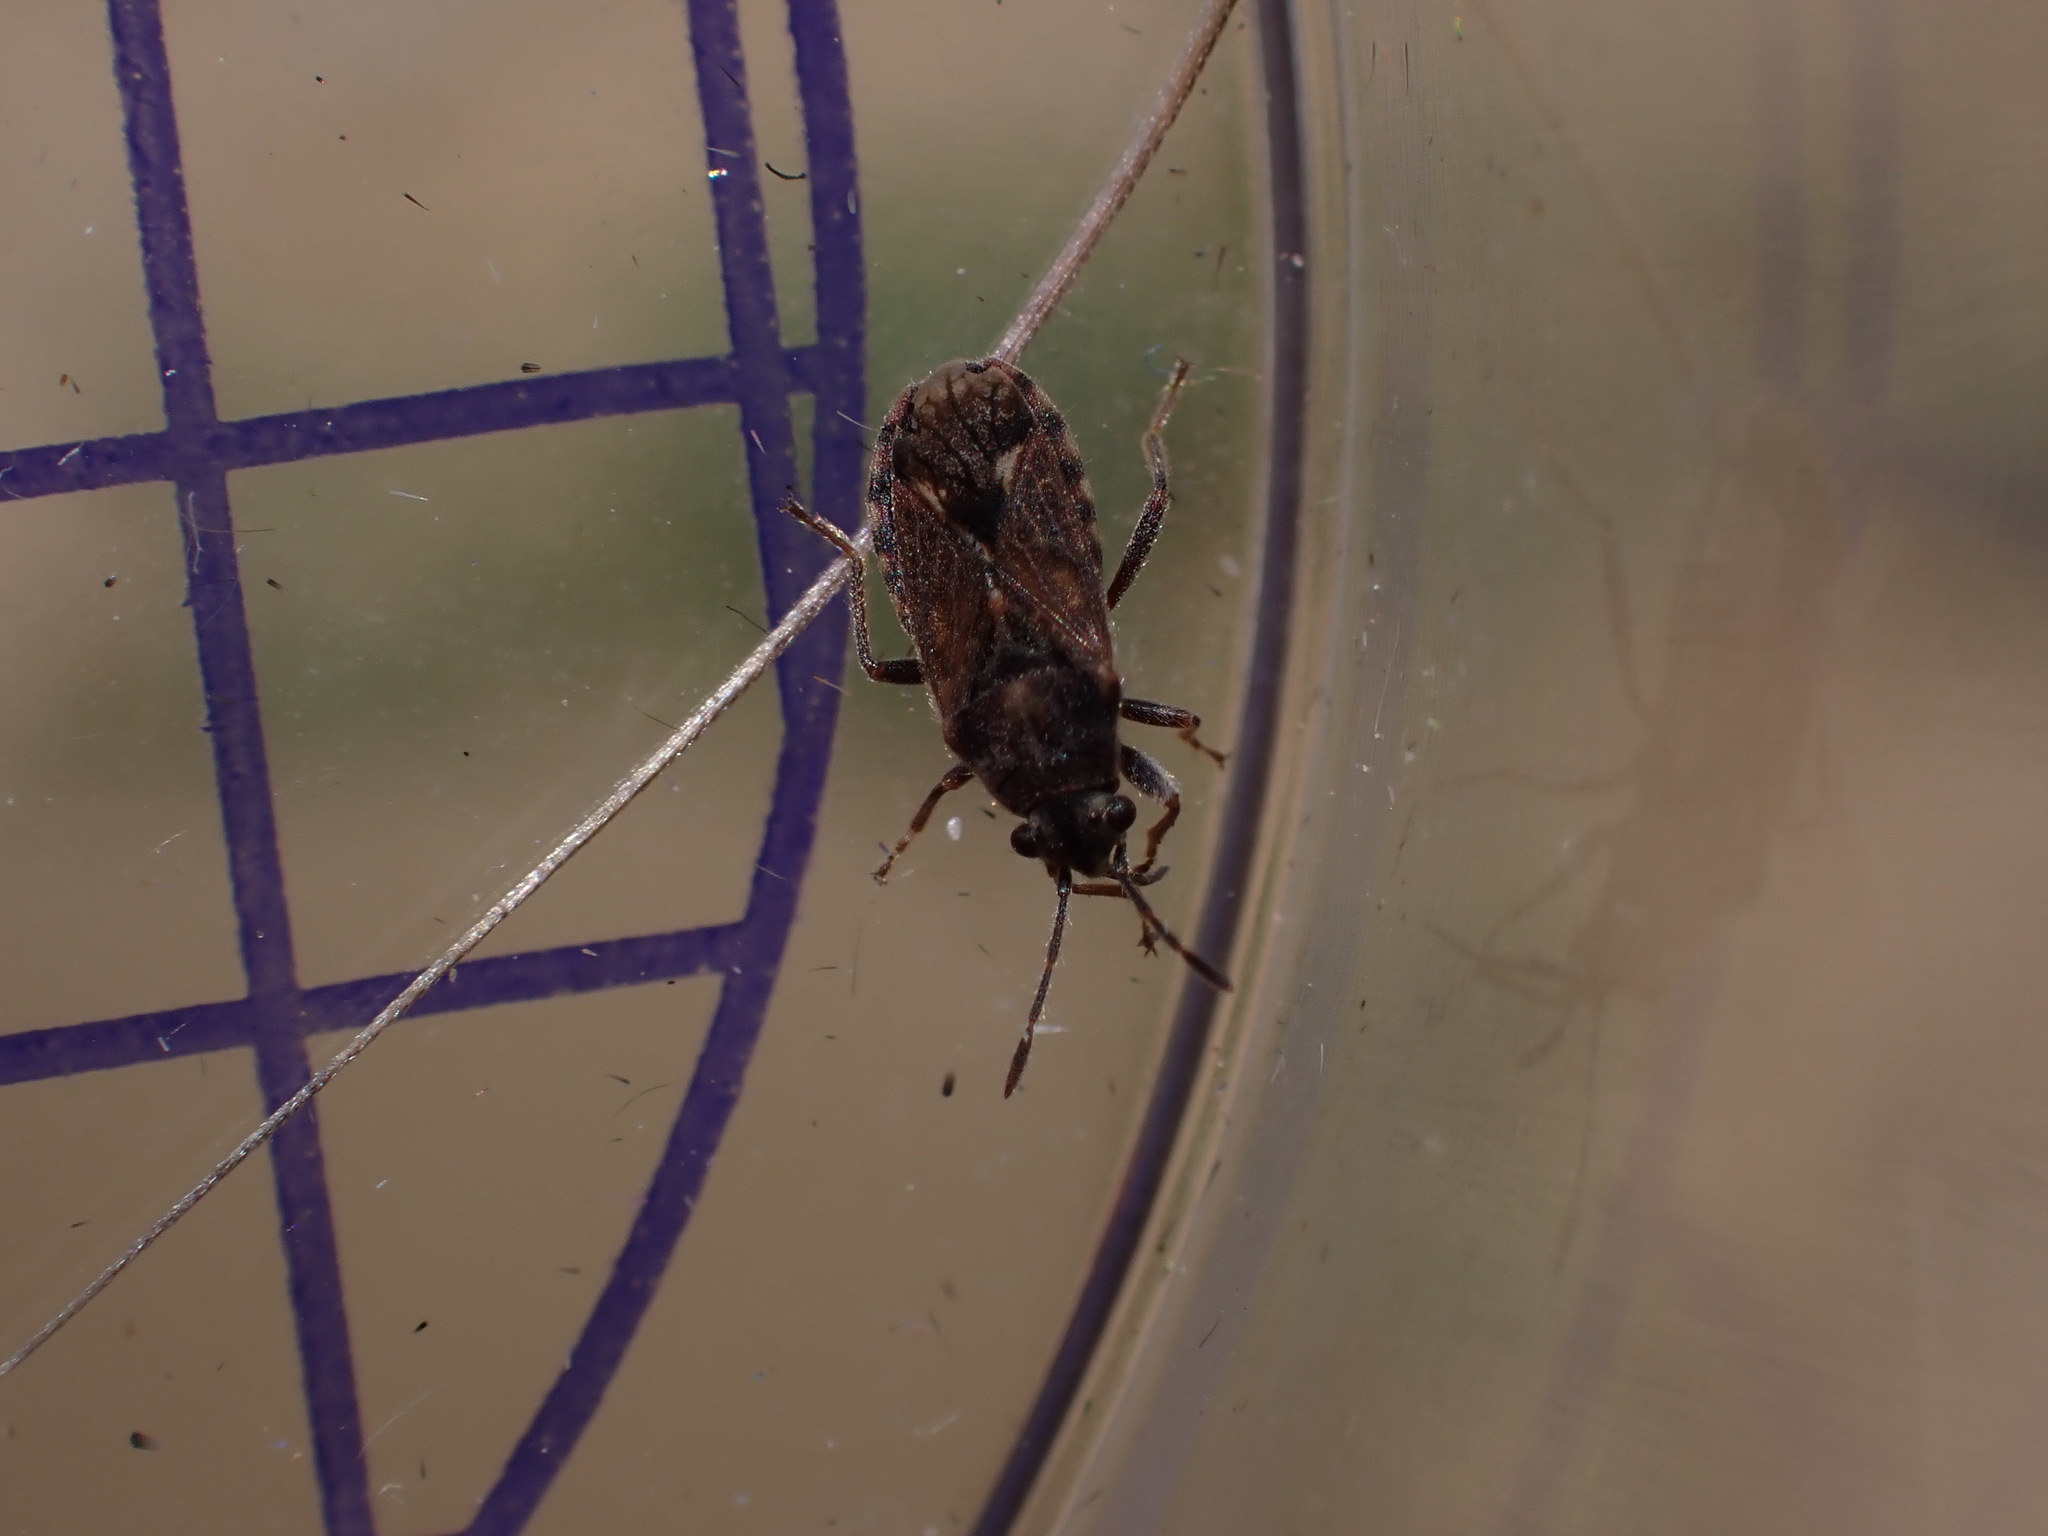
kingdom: Animalia
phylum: Arthropoda
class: Insecta
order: Hemiptera
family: Lygaeidae
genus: Lygaeosoma
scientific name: Lygaeosoma sardeum
